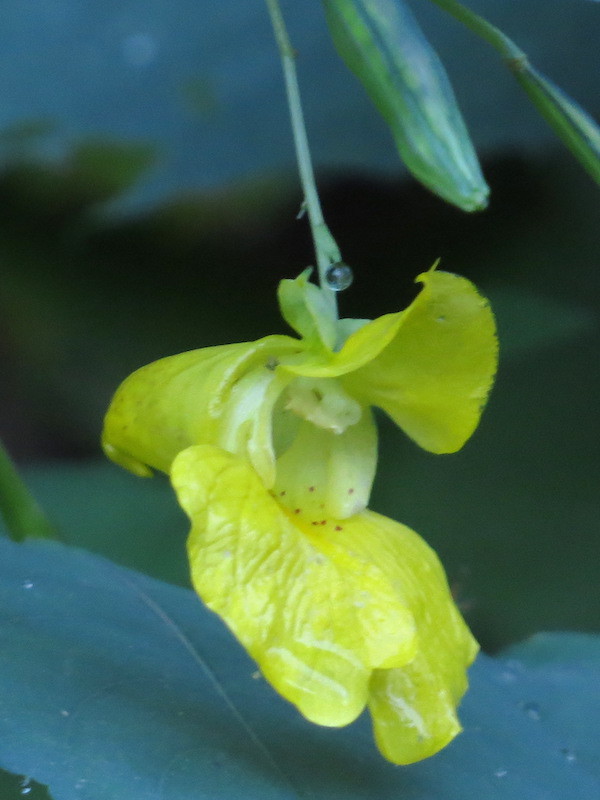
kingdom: Plantae
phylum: Tracheophyta
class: Magnoliopsida
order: Ericales
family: Balsaminaceae
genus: Impatiens
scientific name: Impatiens pallida
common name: Pale snapweed
